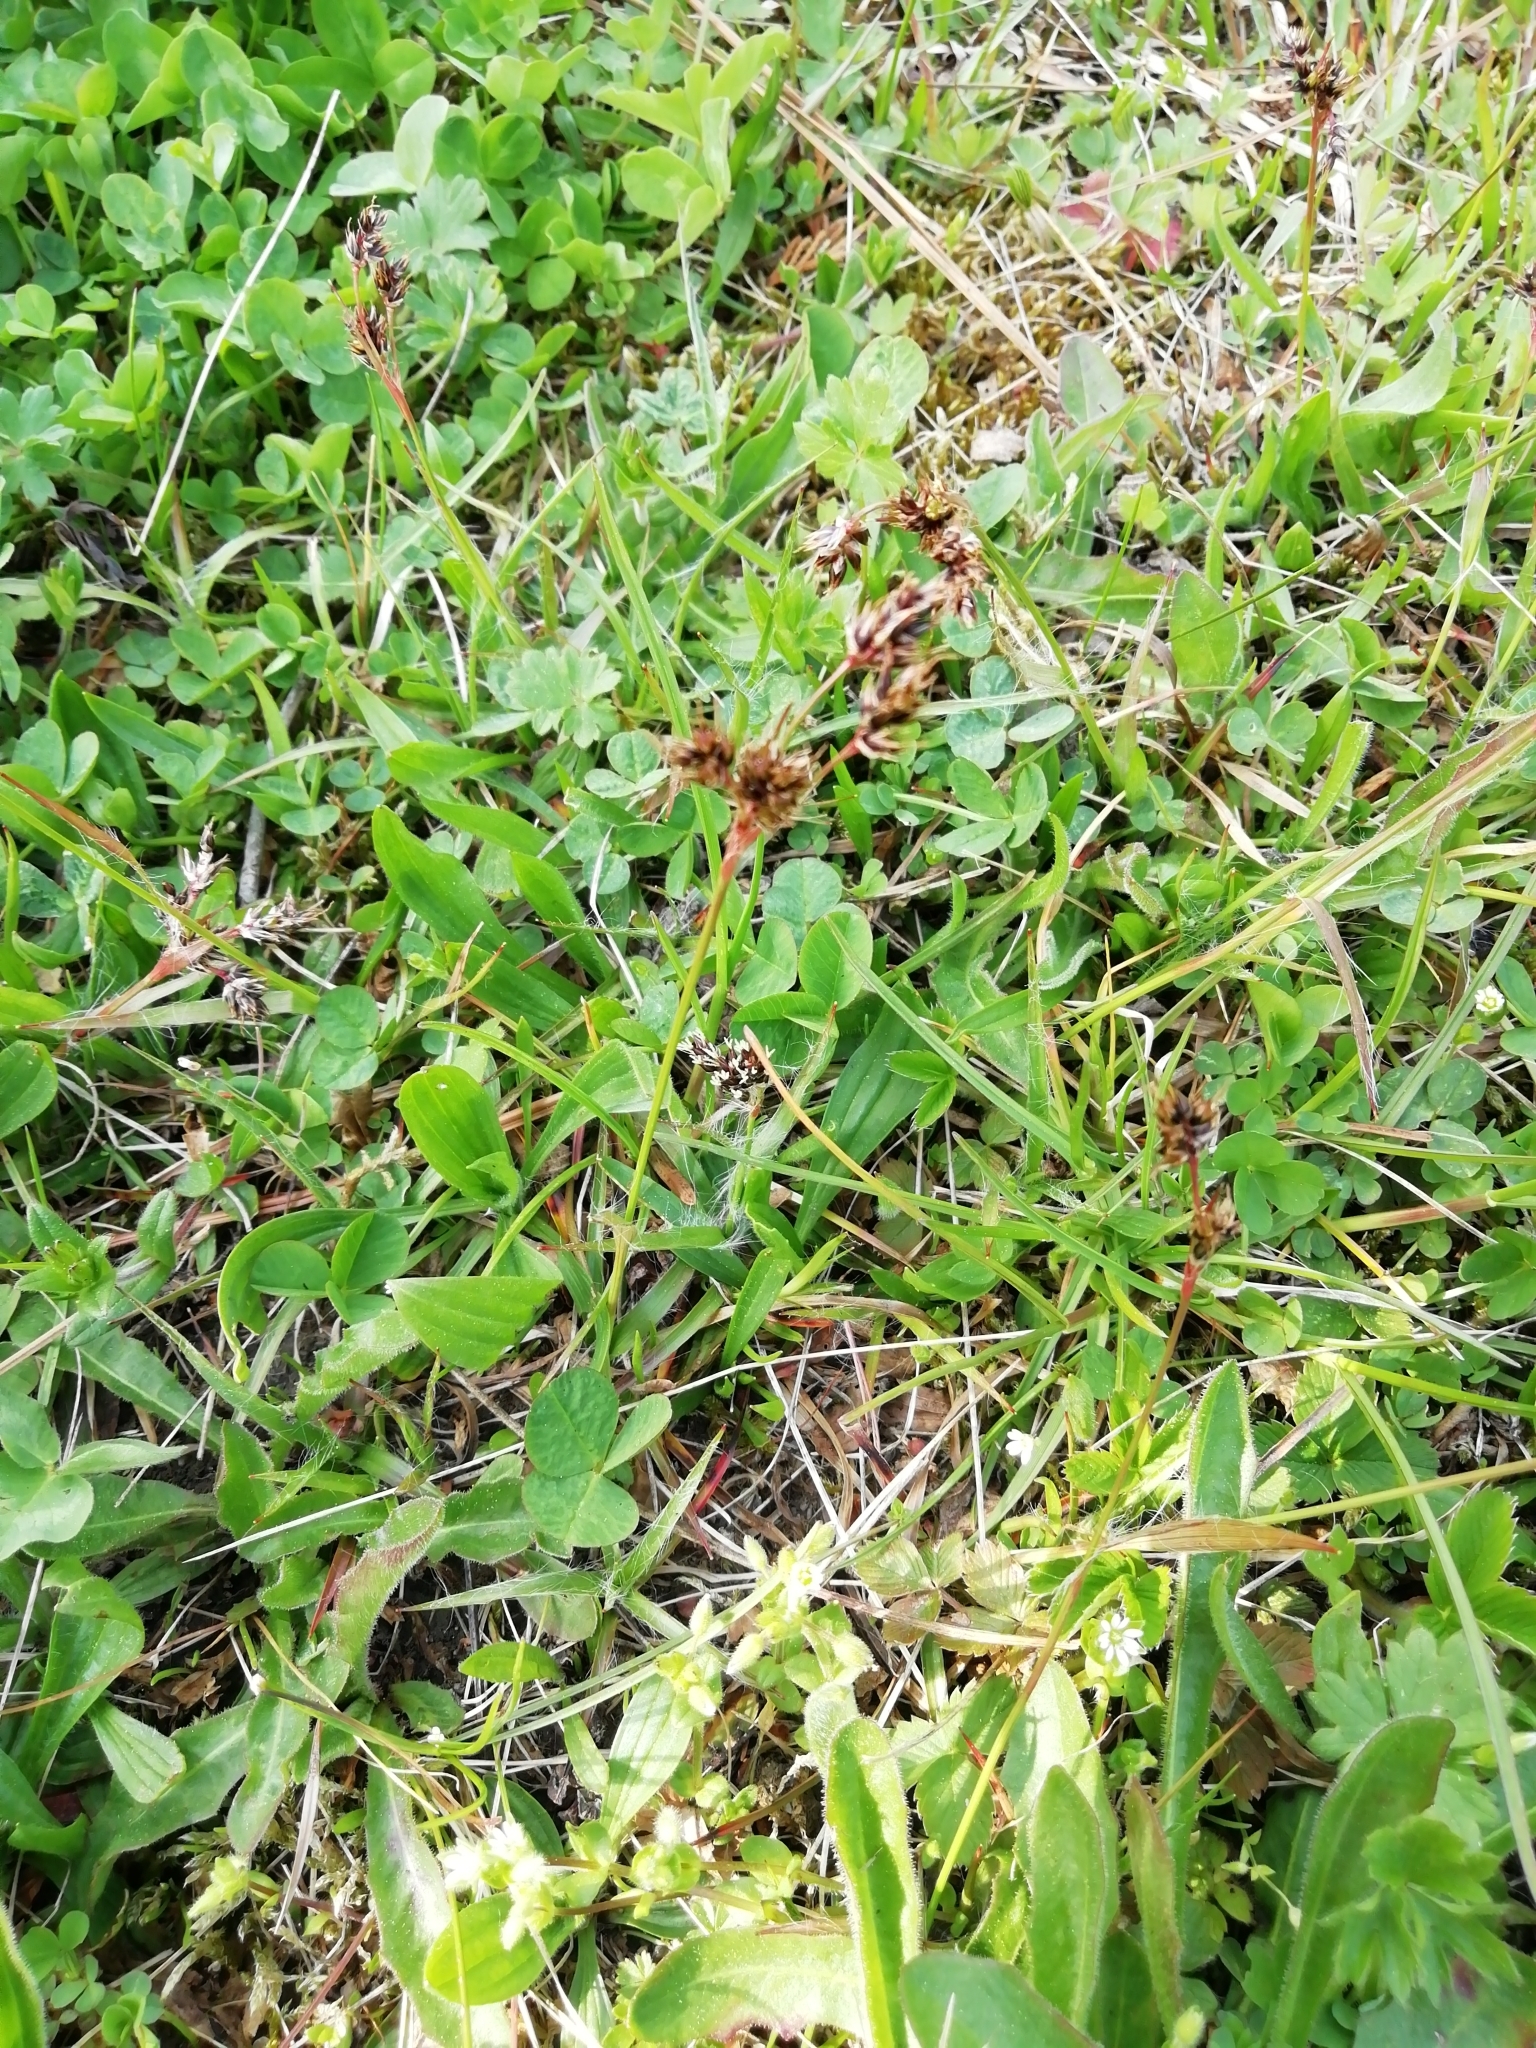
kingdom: Plantae
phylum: Tracheophyta
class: Liliopsida
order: Poales
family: Juncaceae
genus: Luzula
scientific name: Luzula campestris
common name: Field wood-rush
